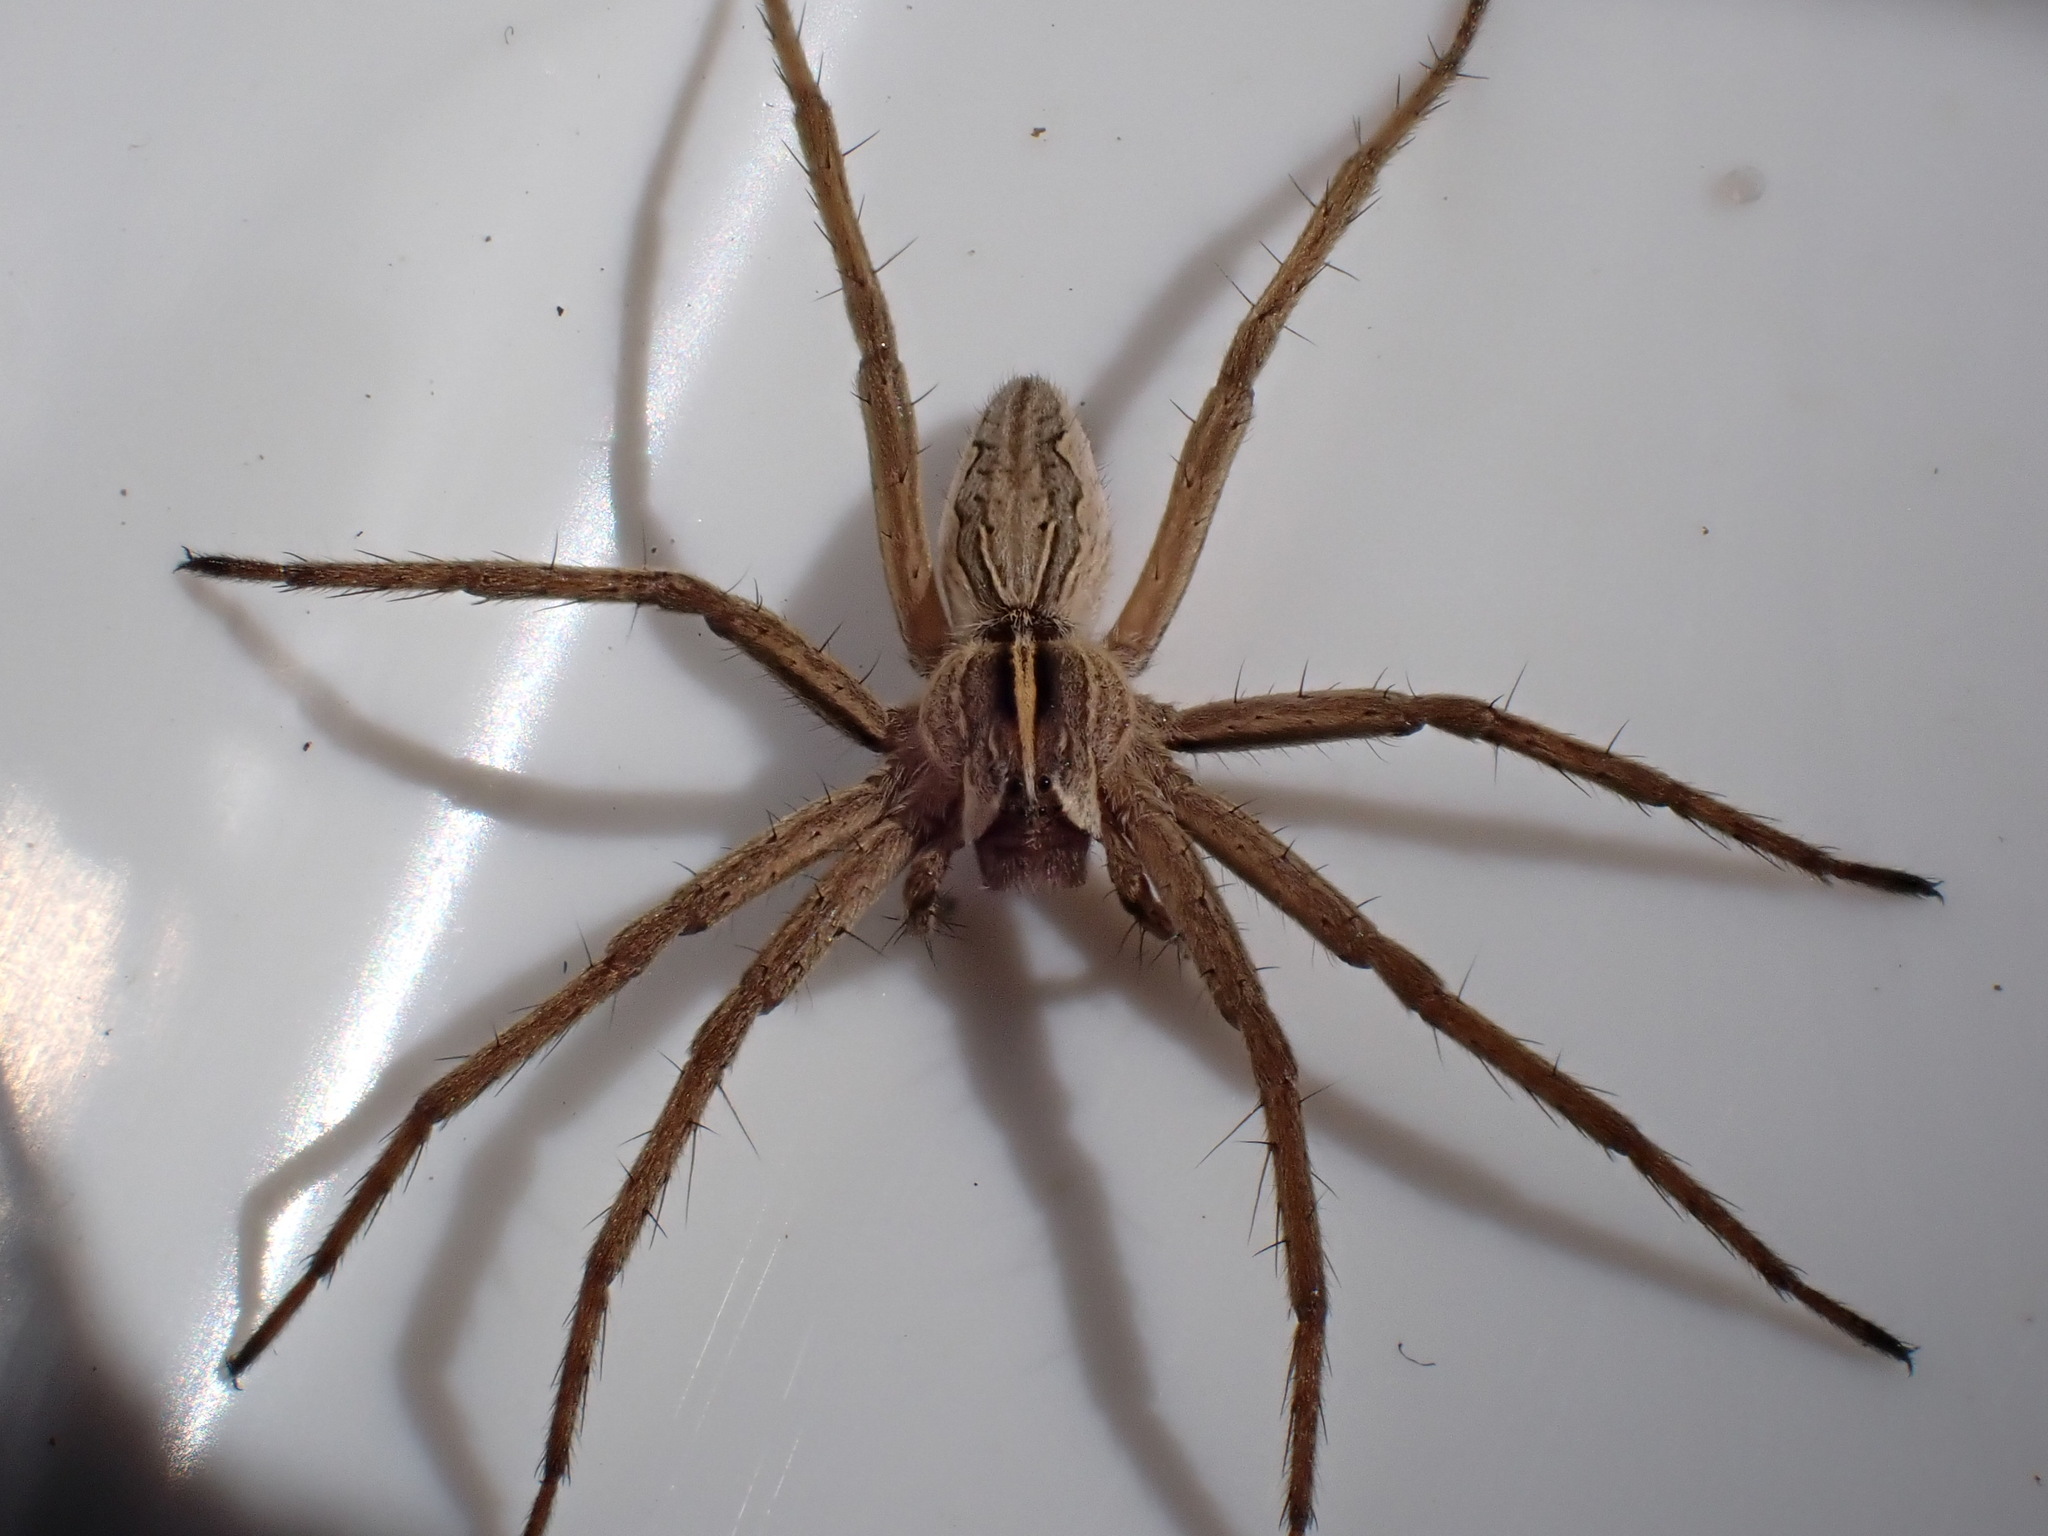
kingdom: Animalia
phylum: Arthropoda
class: Arachnida
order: Araneae
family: Pisauridae
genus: Pisaura
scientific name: Pisaura mirabilis
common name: Tent spider
